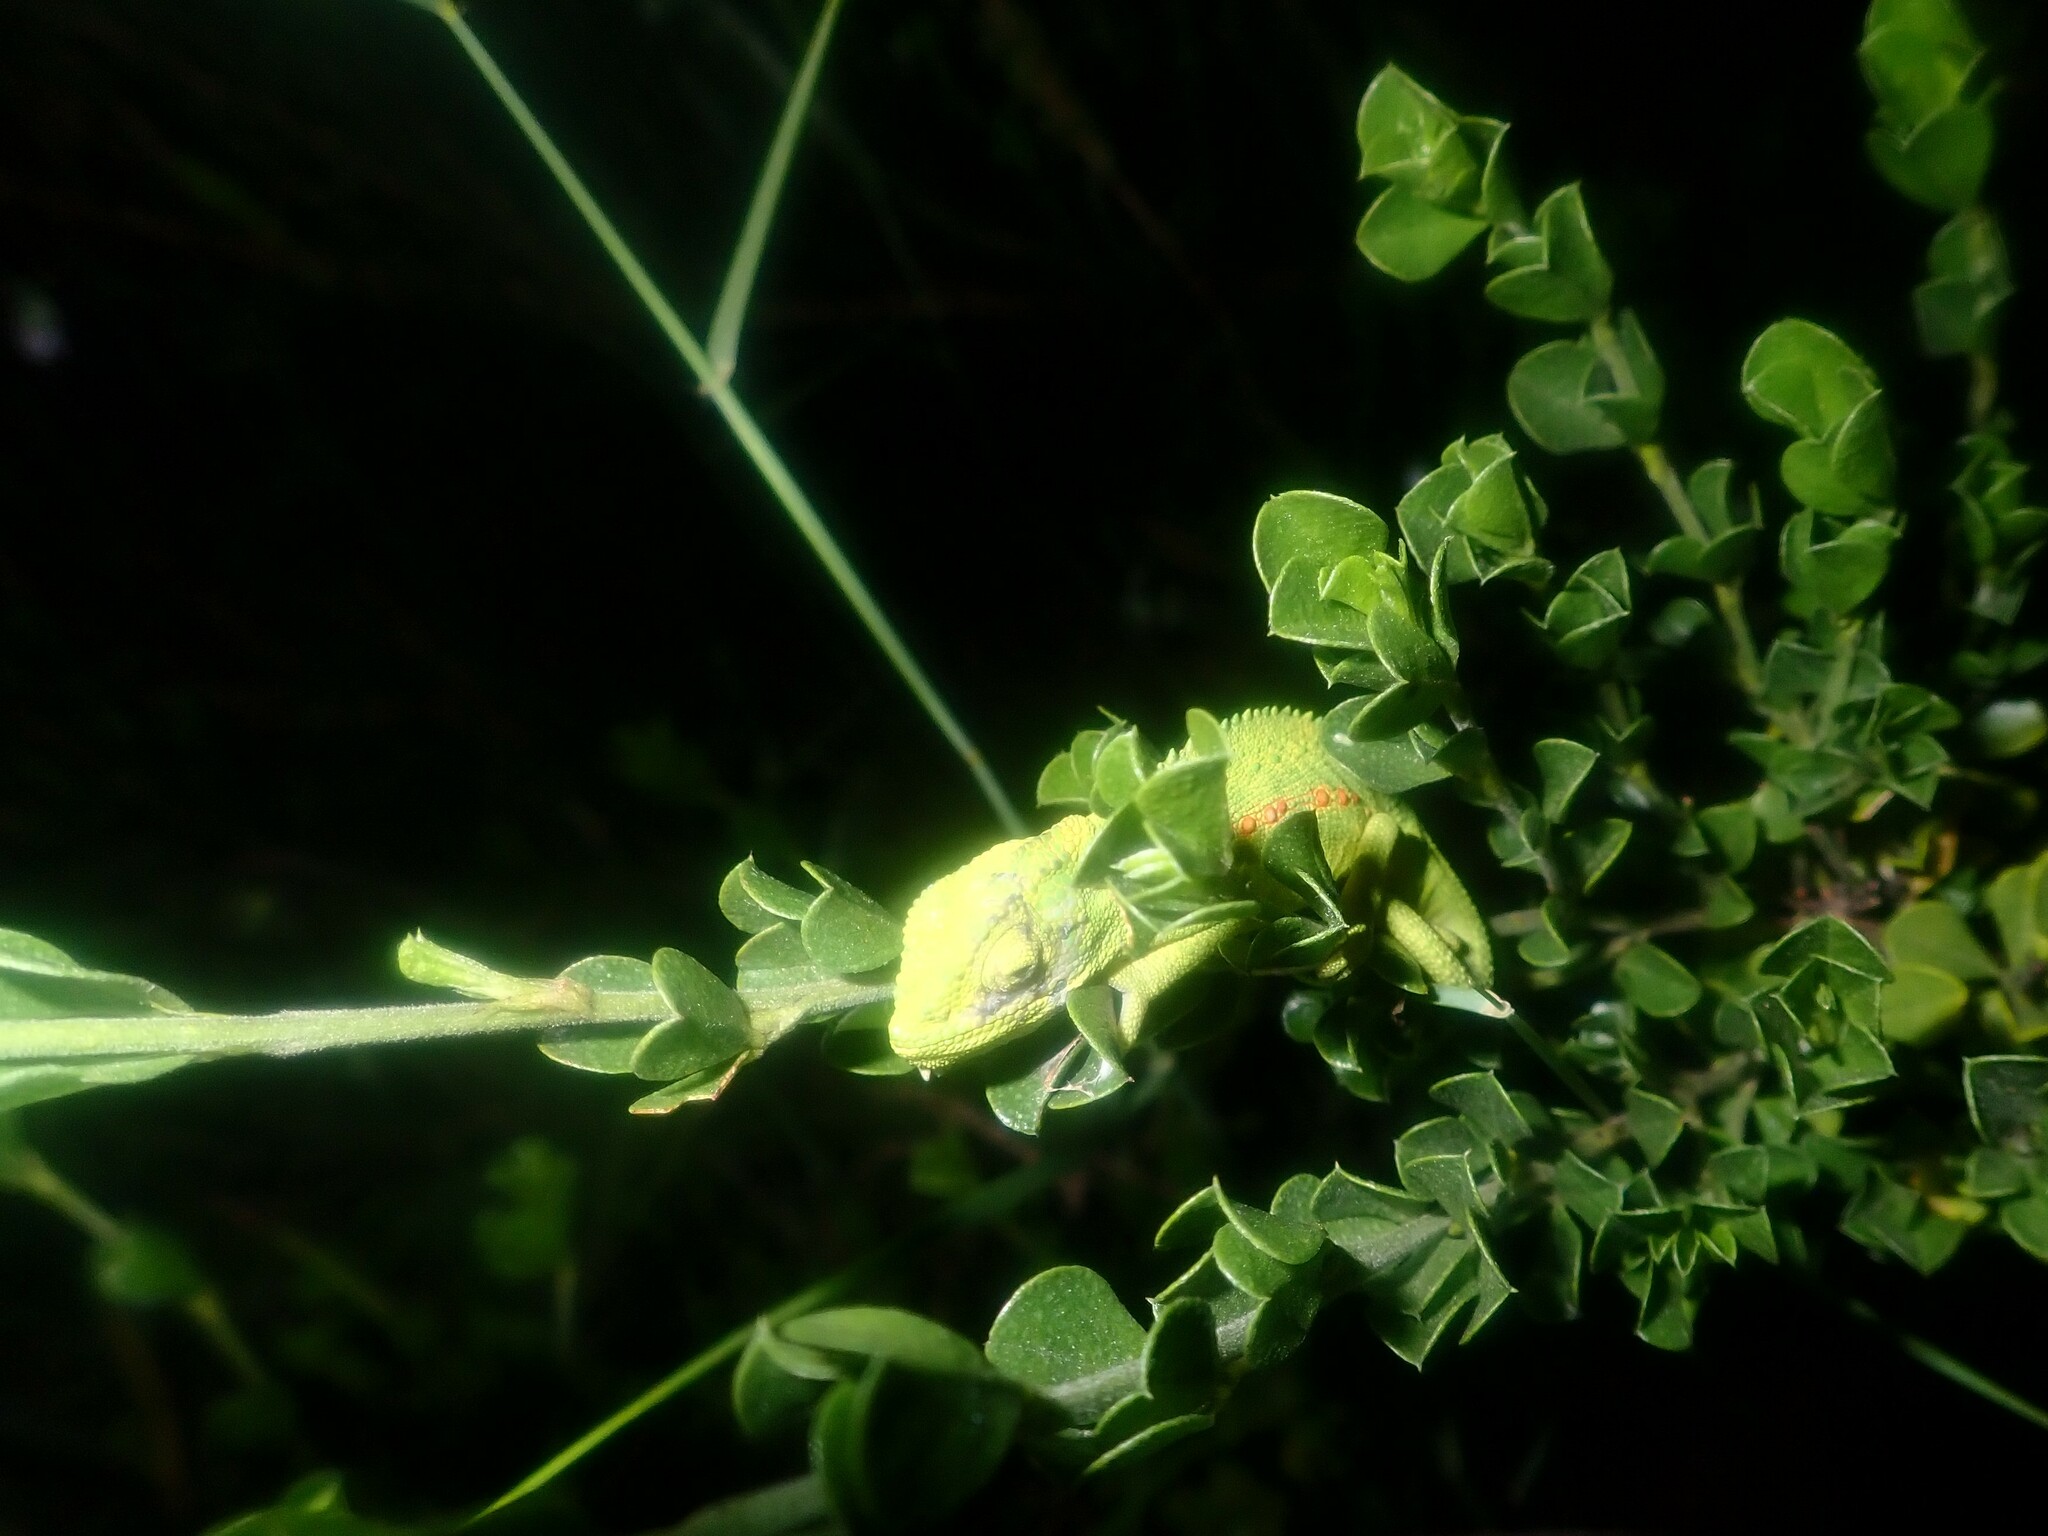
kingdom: Animalia
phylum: Chordata
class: Squamata
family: Chamaeleonidae
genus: Bradypodion
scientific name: Bradypodion pumilum
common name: Cape dwarf chameleon
